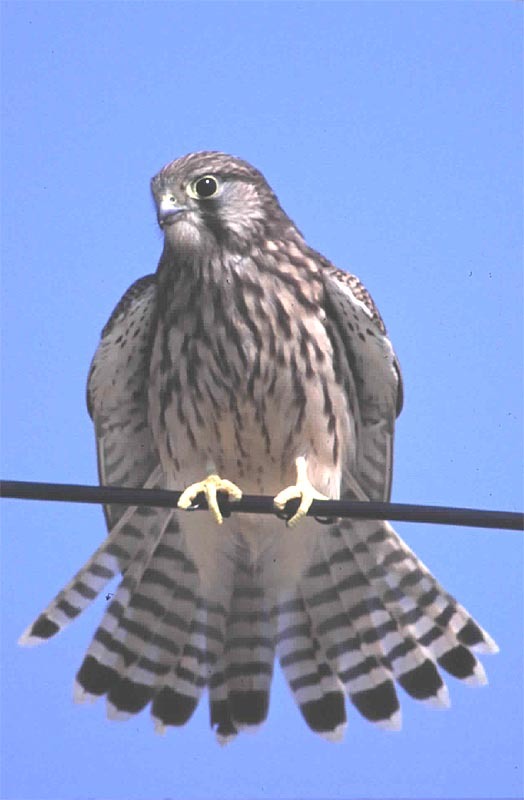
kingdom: Animalia
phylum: Chordata
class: Aves
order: Falconiformes
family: Falconidae
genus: Falco
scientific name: Falco tinnunculus
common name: Common kestrel
